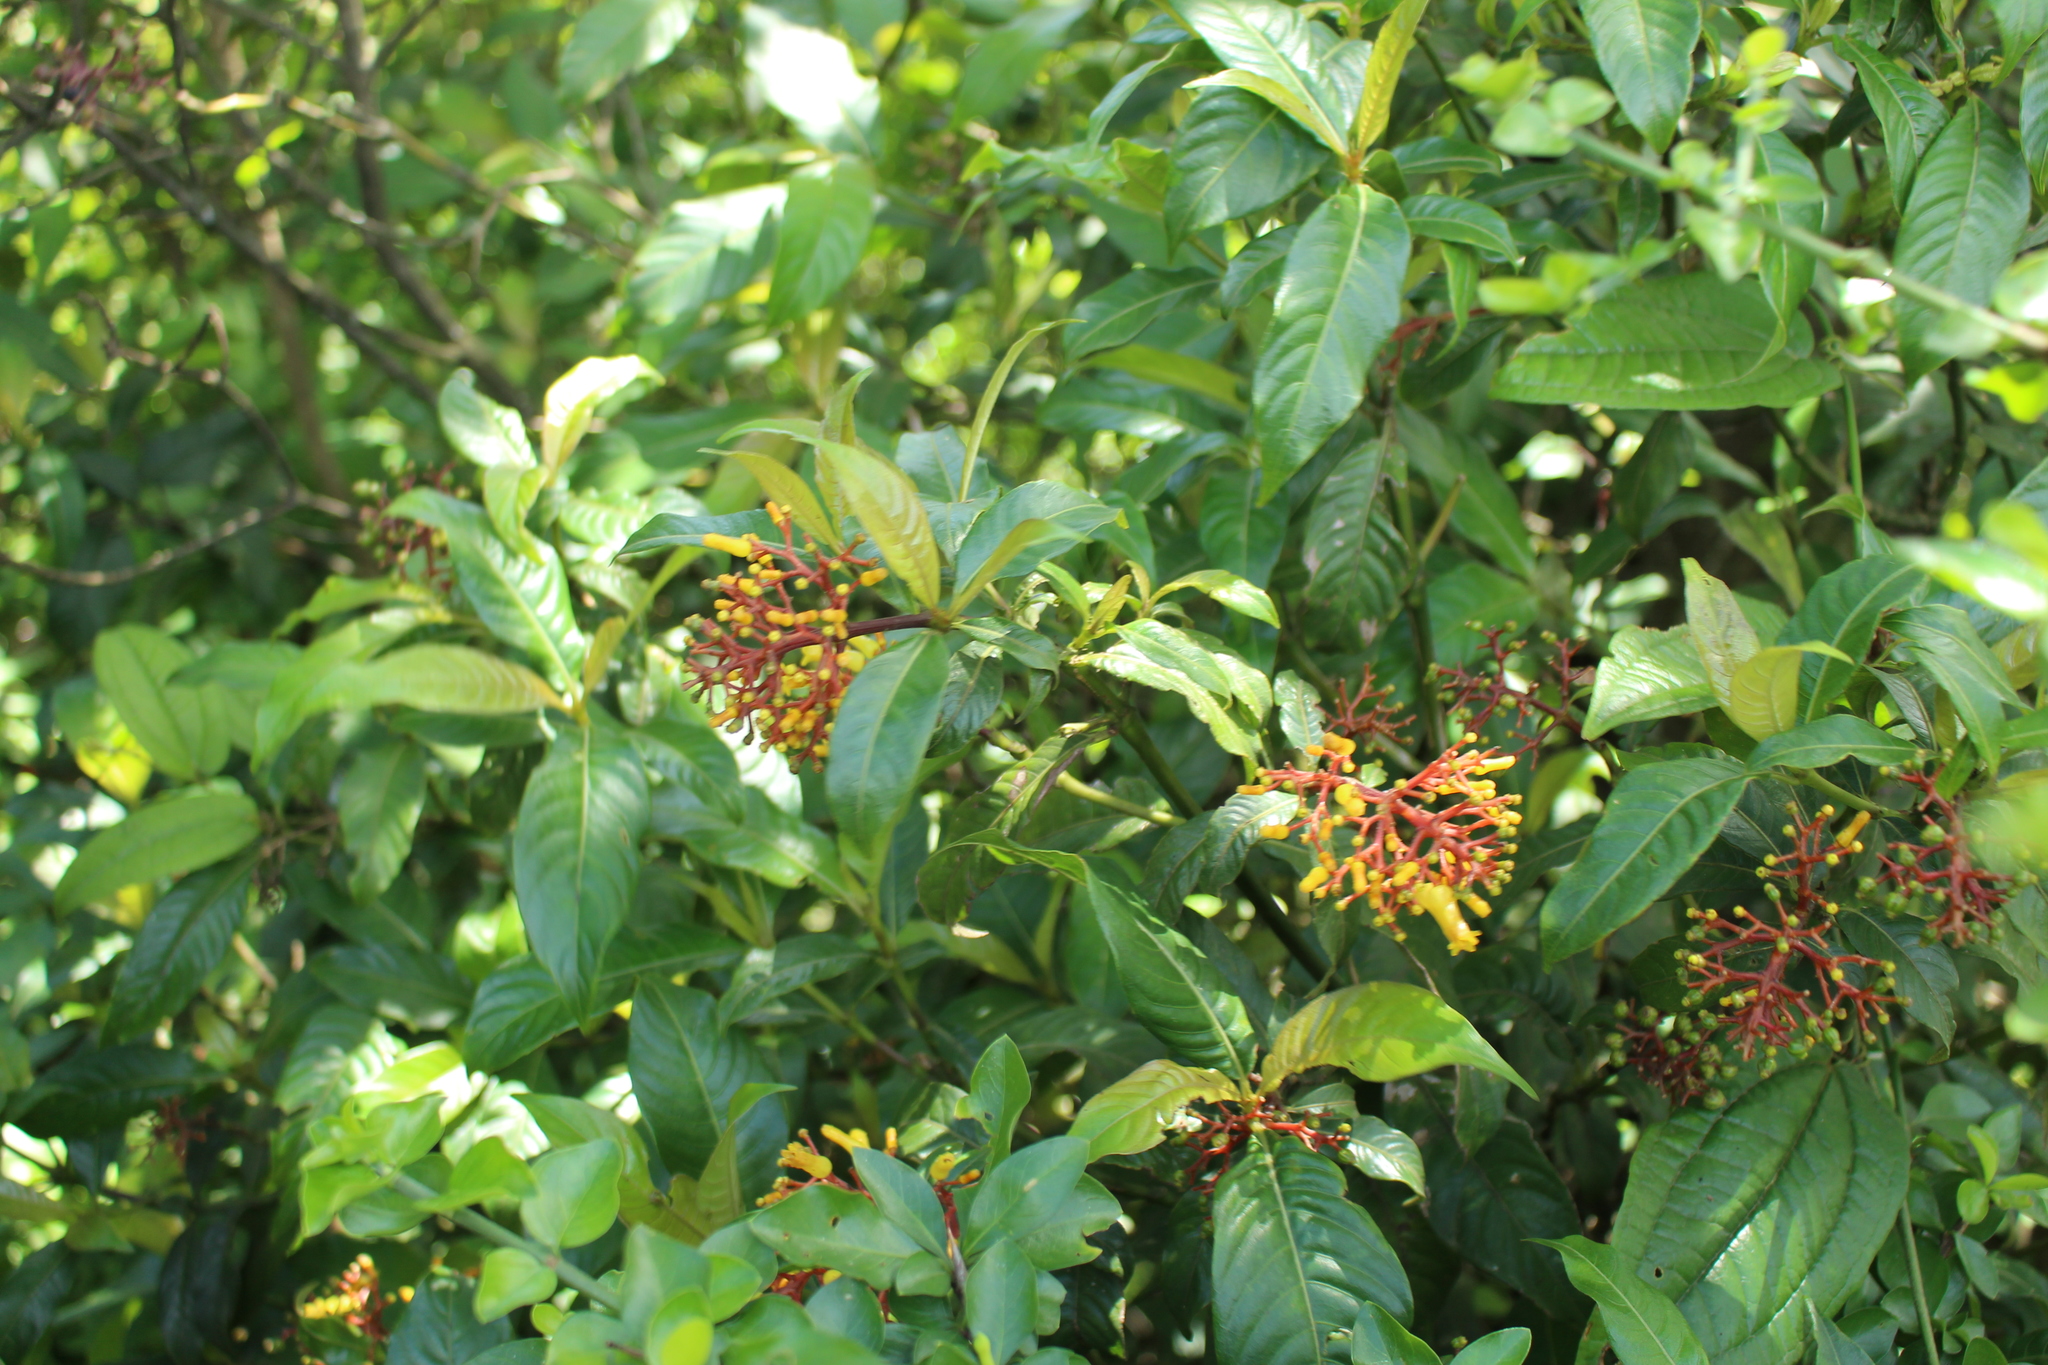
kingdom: Plantae
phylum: Tracheophyta
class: Magnoliopsida
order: Gentianales
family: Rubiaceae
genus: Palicourea
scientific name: Palicourea padifolia
